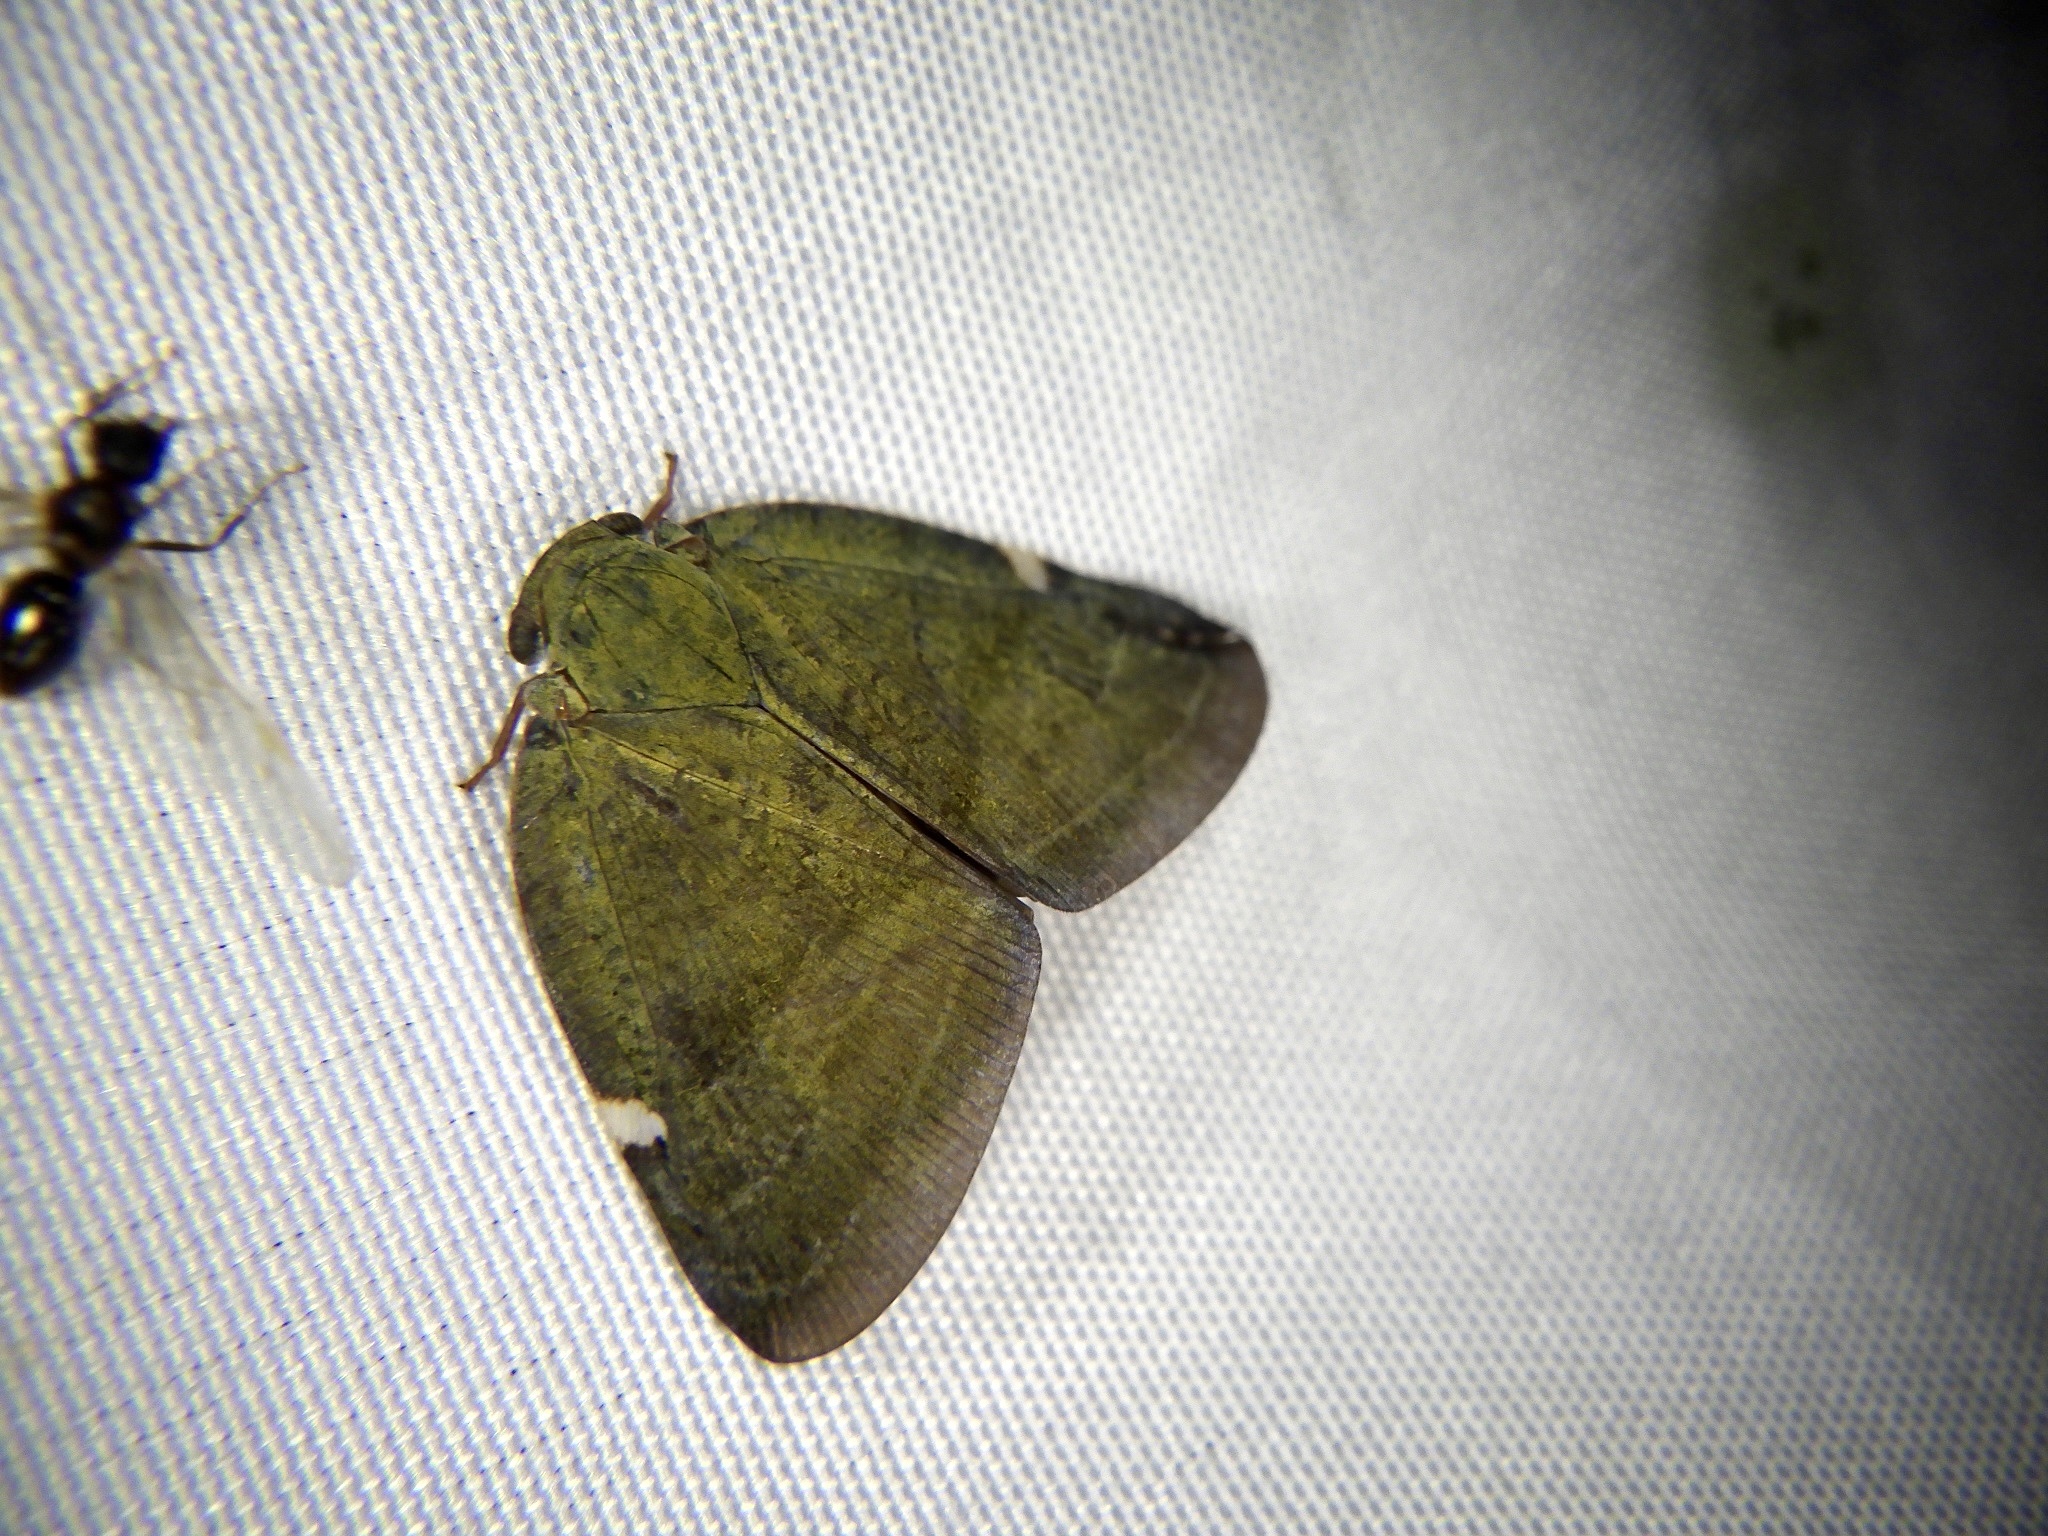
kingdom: Animalia
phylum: Arthropoda
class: Insecta
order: Hemiptera
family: Ricaniidae
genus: Pochazia
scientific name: Pochazia albomaculata
